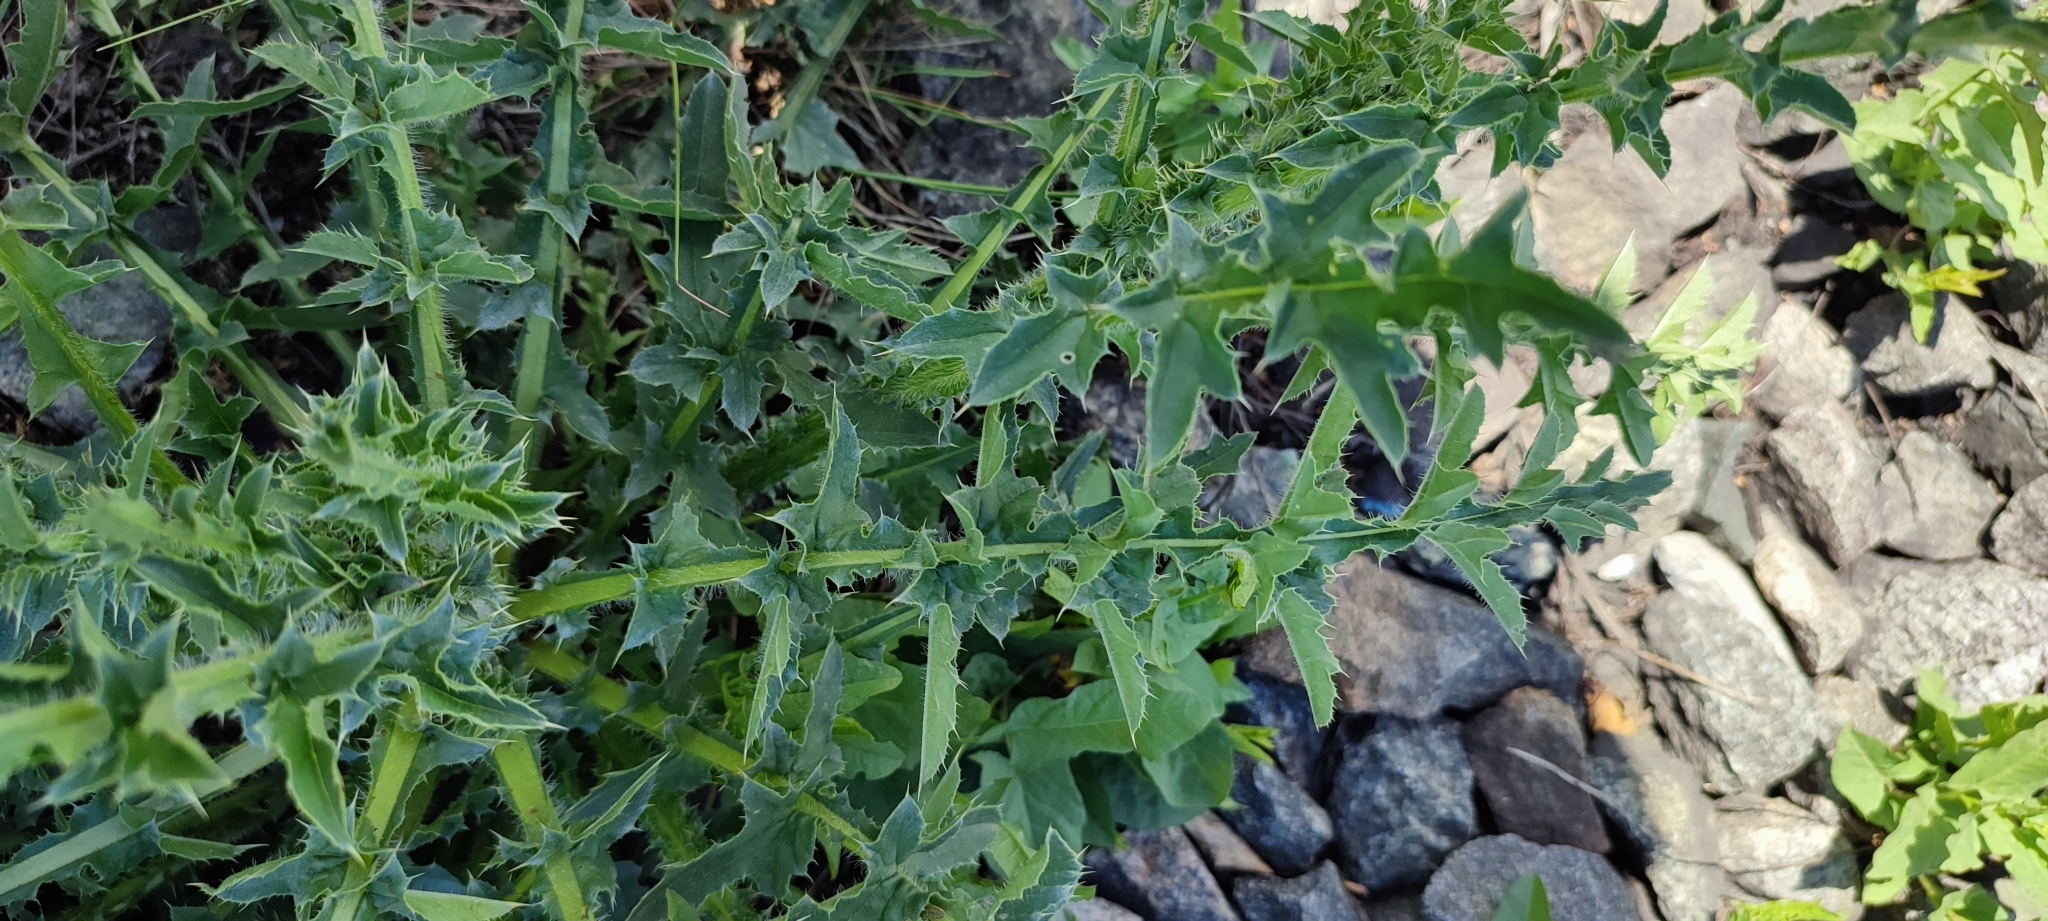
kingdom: Plantae
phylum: Tracheophyta
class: Magnoliopsida
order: Asterales
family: Asteraceae
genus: Carduus
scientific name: Carduus nutans
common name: Musk thistle
